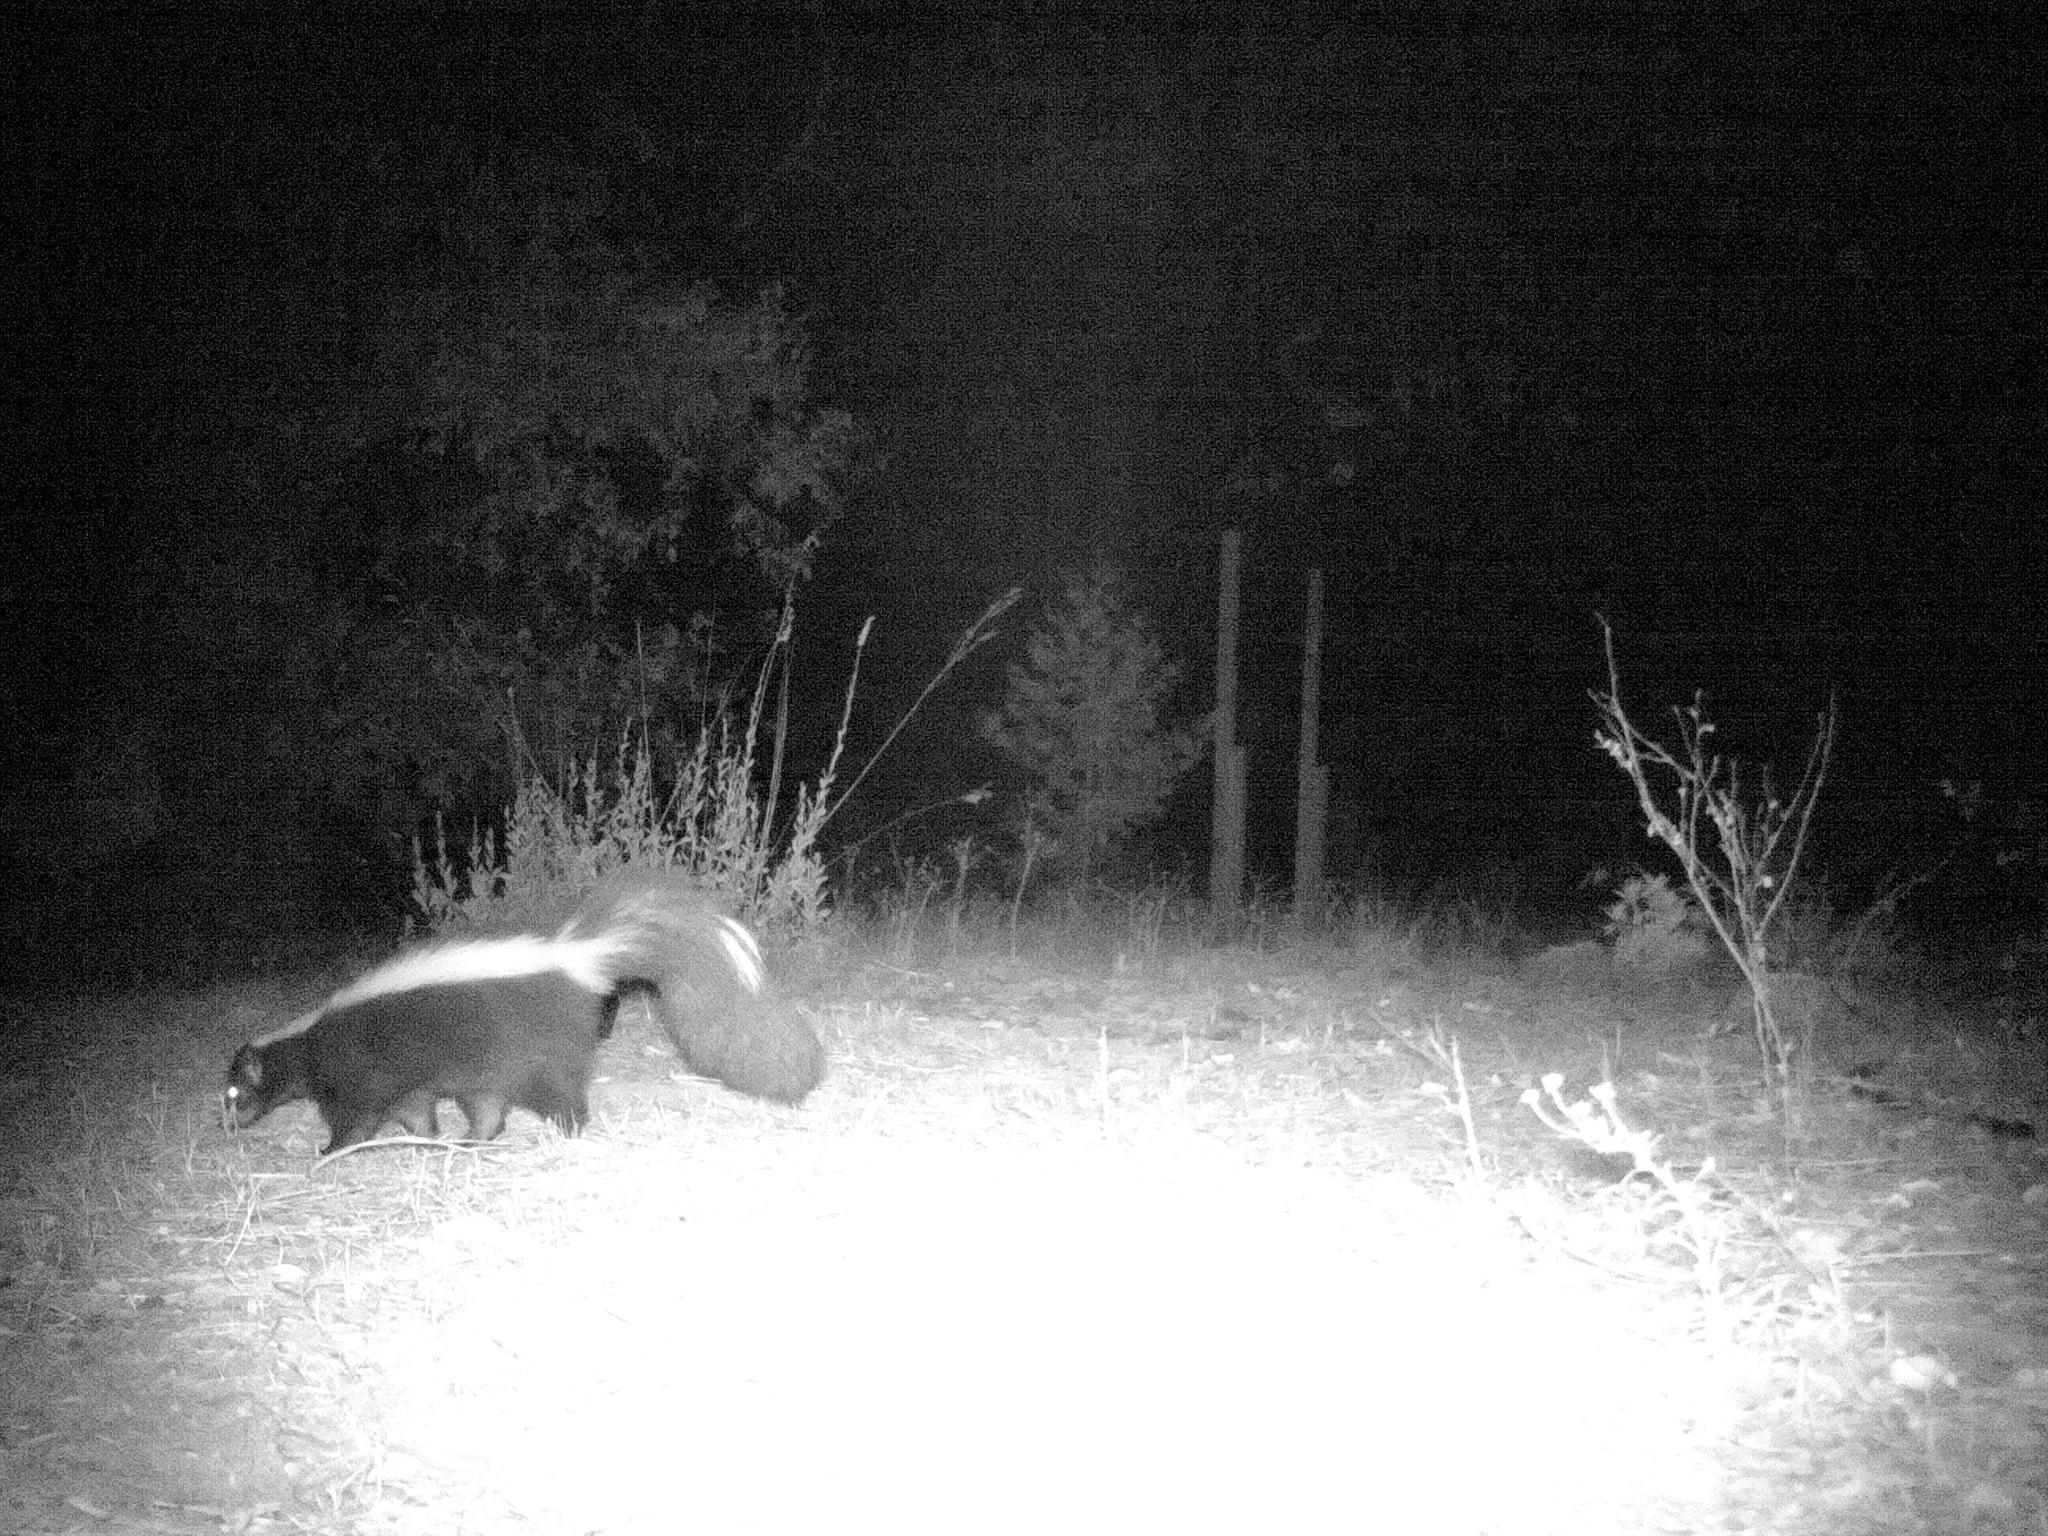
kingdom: Animalia
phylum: Chordata
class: Mammalia
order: Carnivora
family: Mephitidae
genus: Mephitis
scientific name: Mephitis mephitis
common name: Striped skunk
